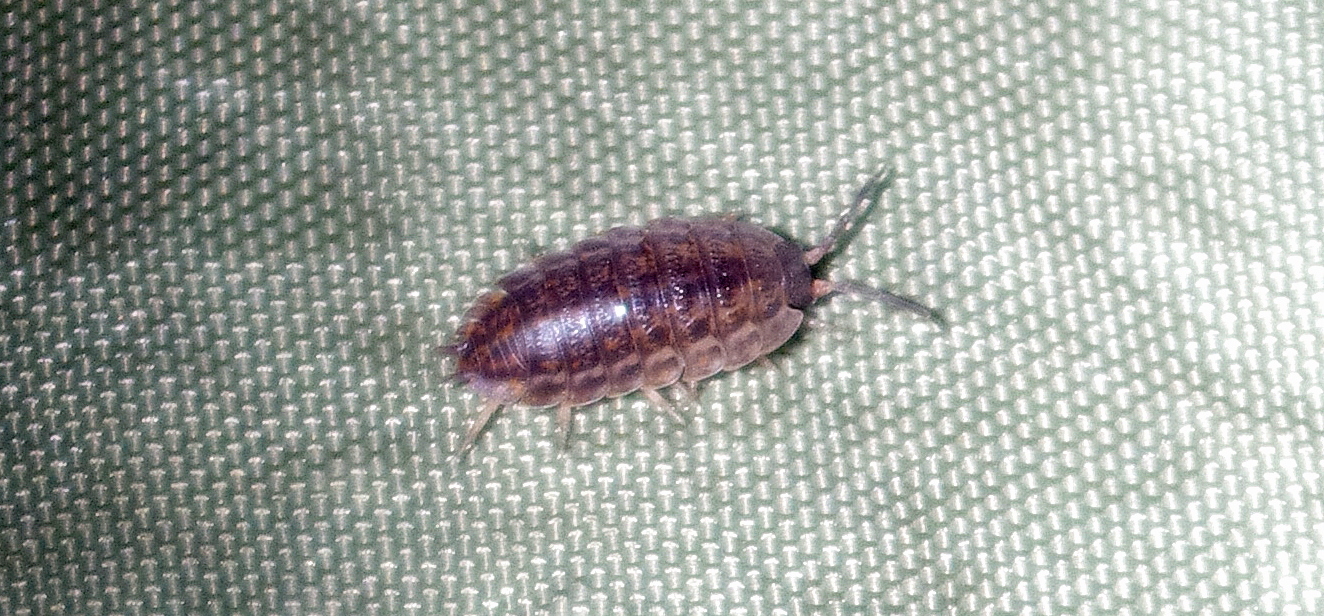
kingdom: Animalia
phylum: Arthropoda
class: Malacostraca
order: Isopoda
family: Trachelipodidae
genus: Trachelipus
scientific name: Trachelipus rathkii
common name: Isopod
